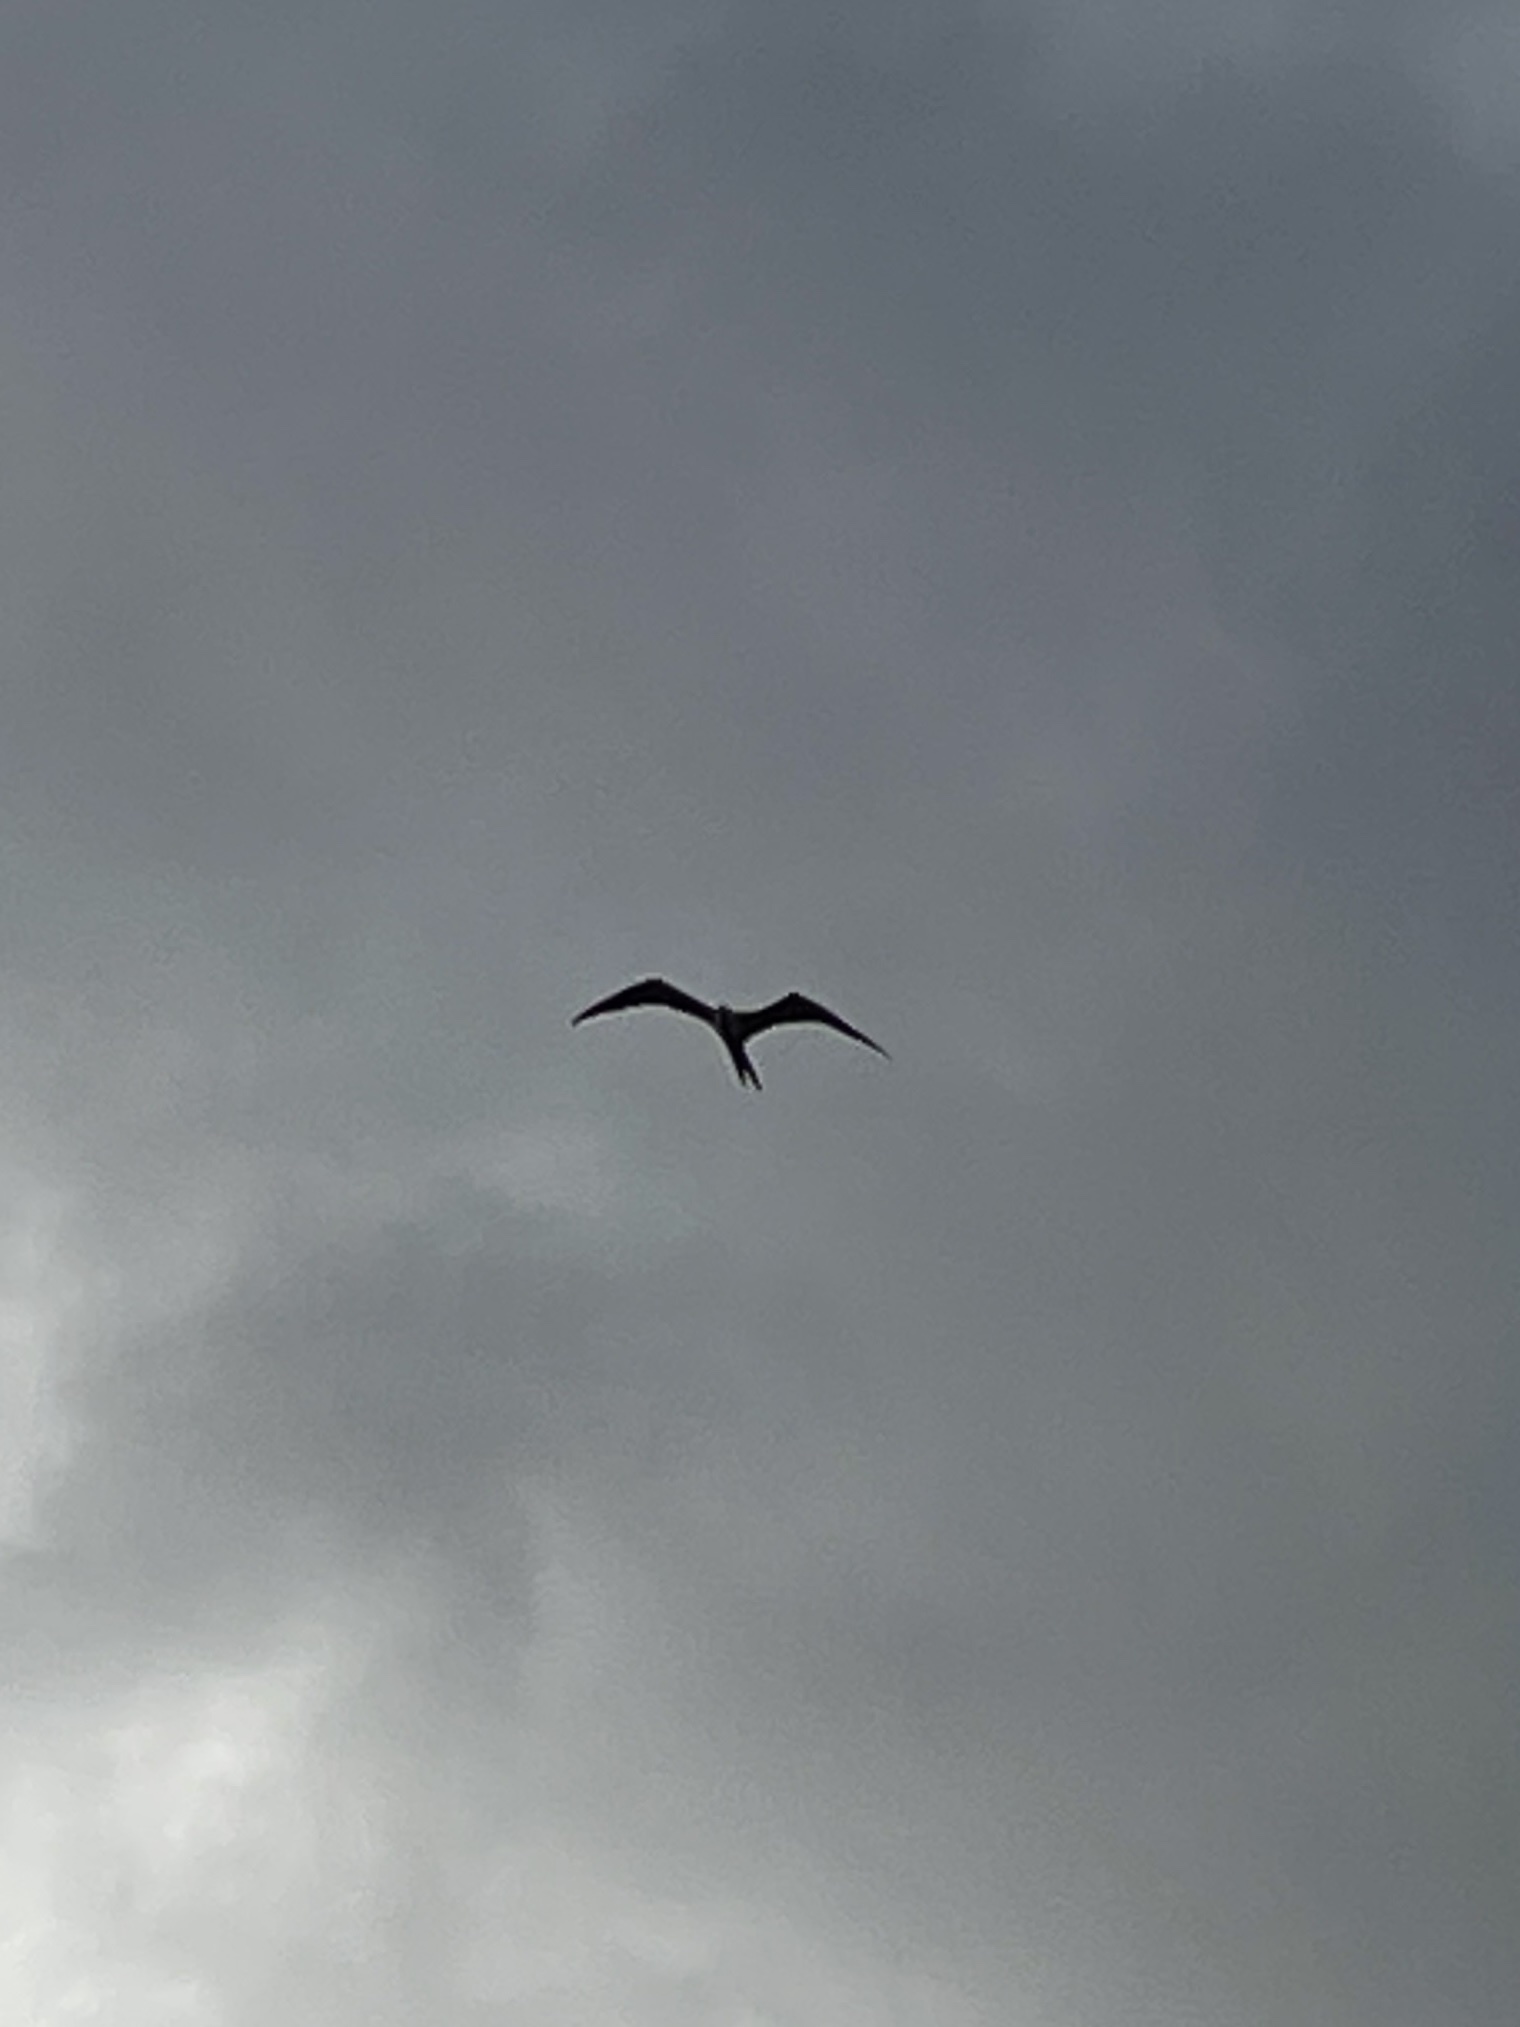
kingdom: Animalia
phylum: Chordata
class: Aves
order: Suliformes
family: Fregatidae
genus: Fregata
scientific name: Fregata magnificens
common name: Magnificent frigatebird
